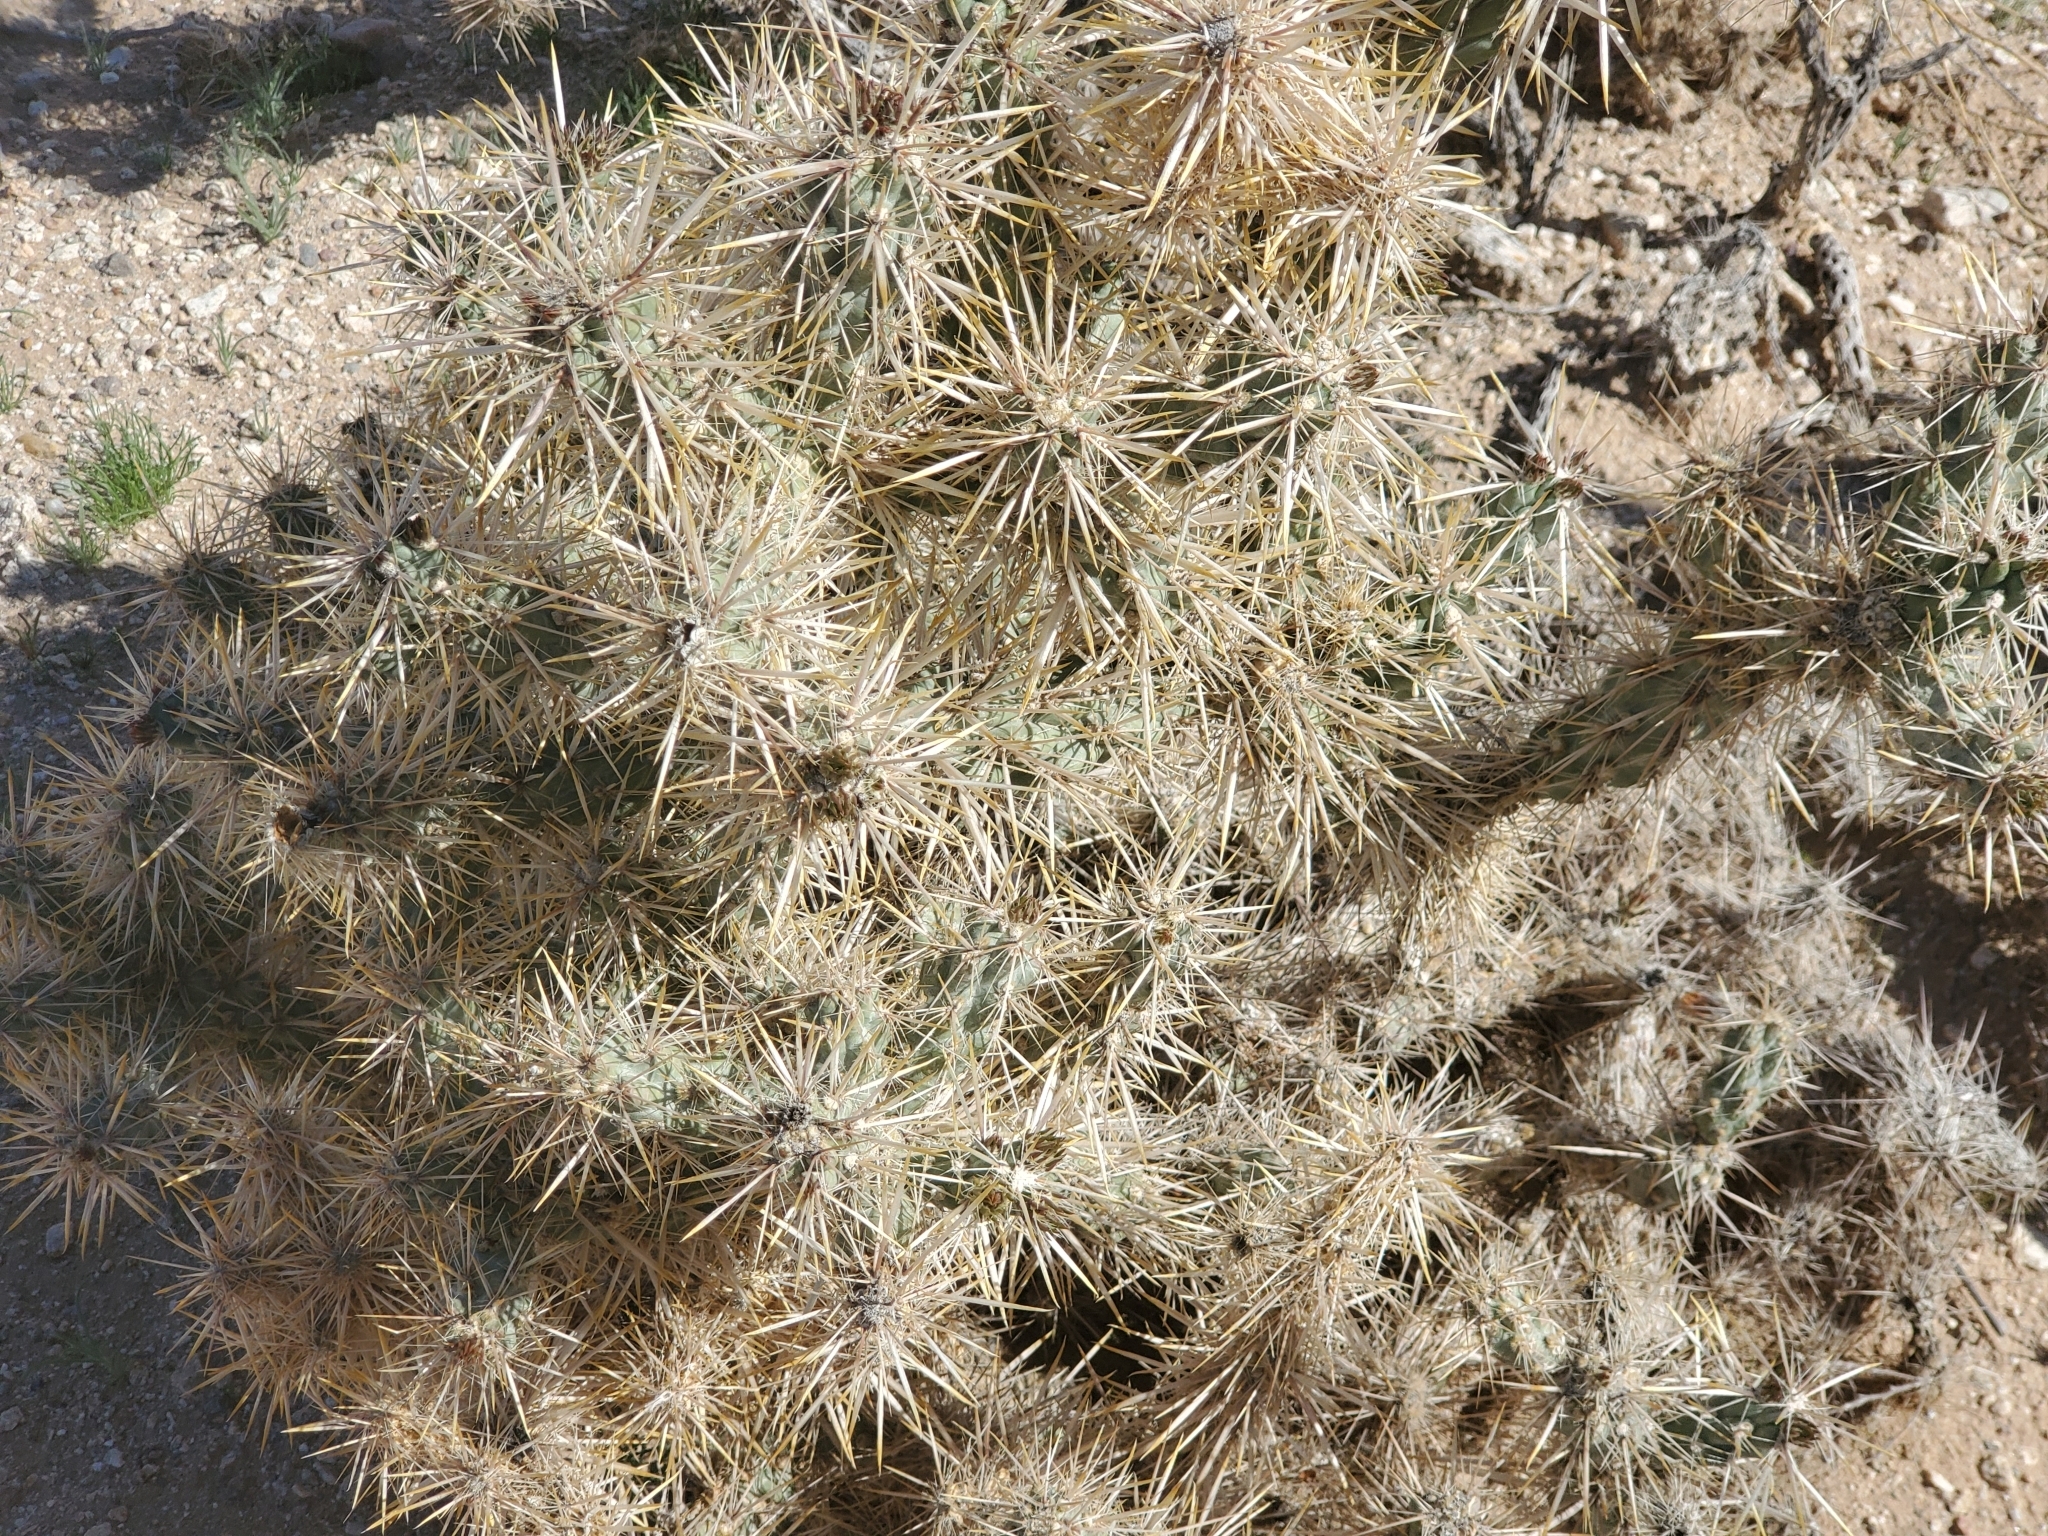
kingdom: Plantae
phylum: Tracheophyta
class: Magnoliopsida
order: Caryophyllales
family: Cactaceae
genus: Cylindropuntia
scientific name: Cylindropuntia echinocarpa
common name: Ground cholla
